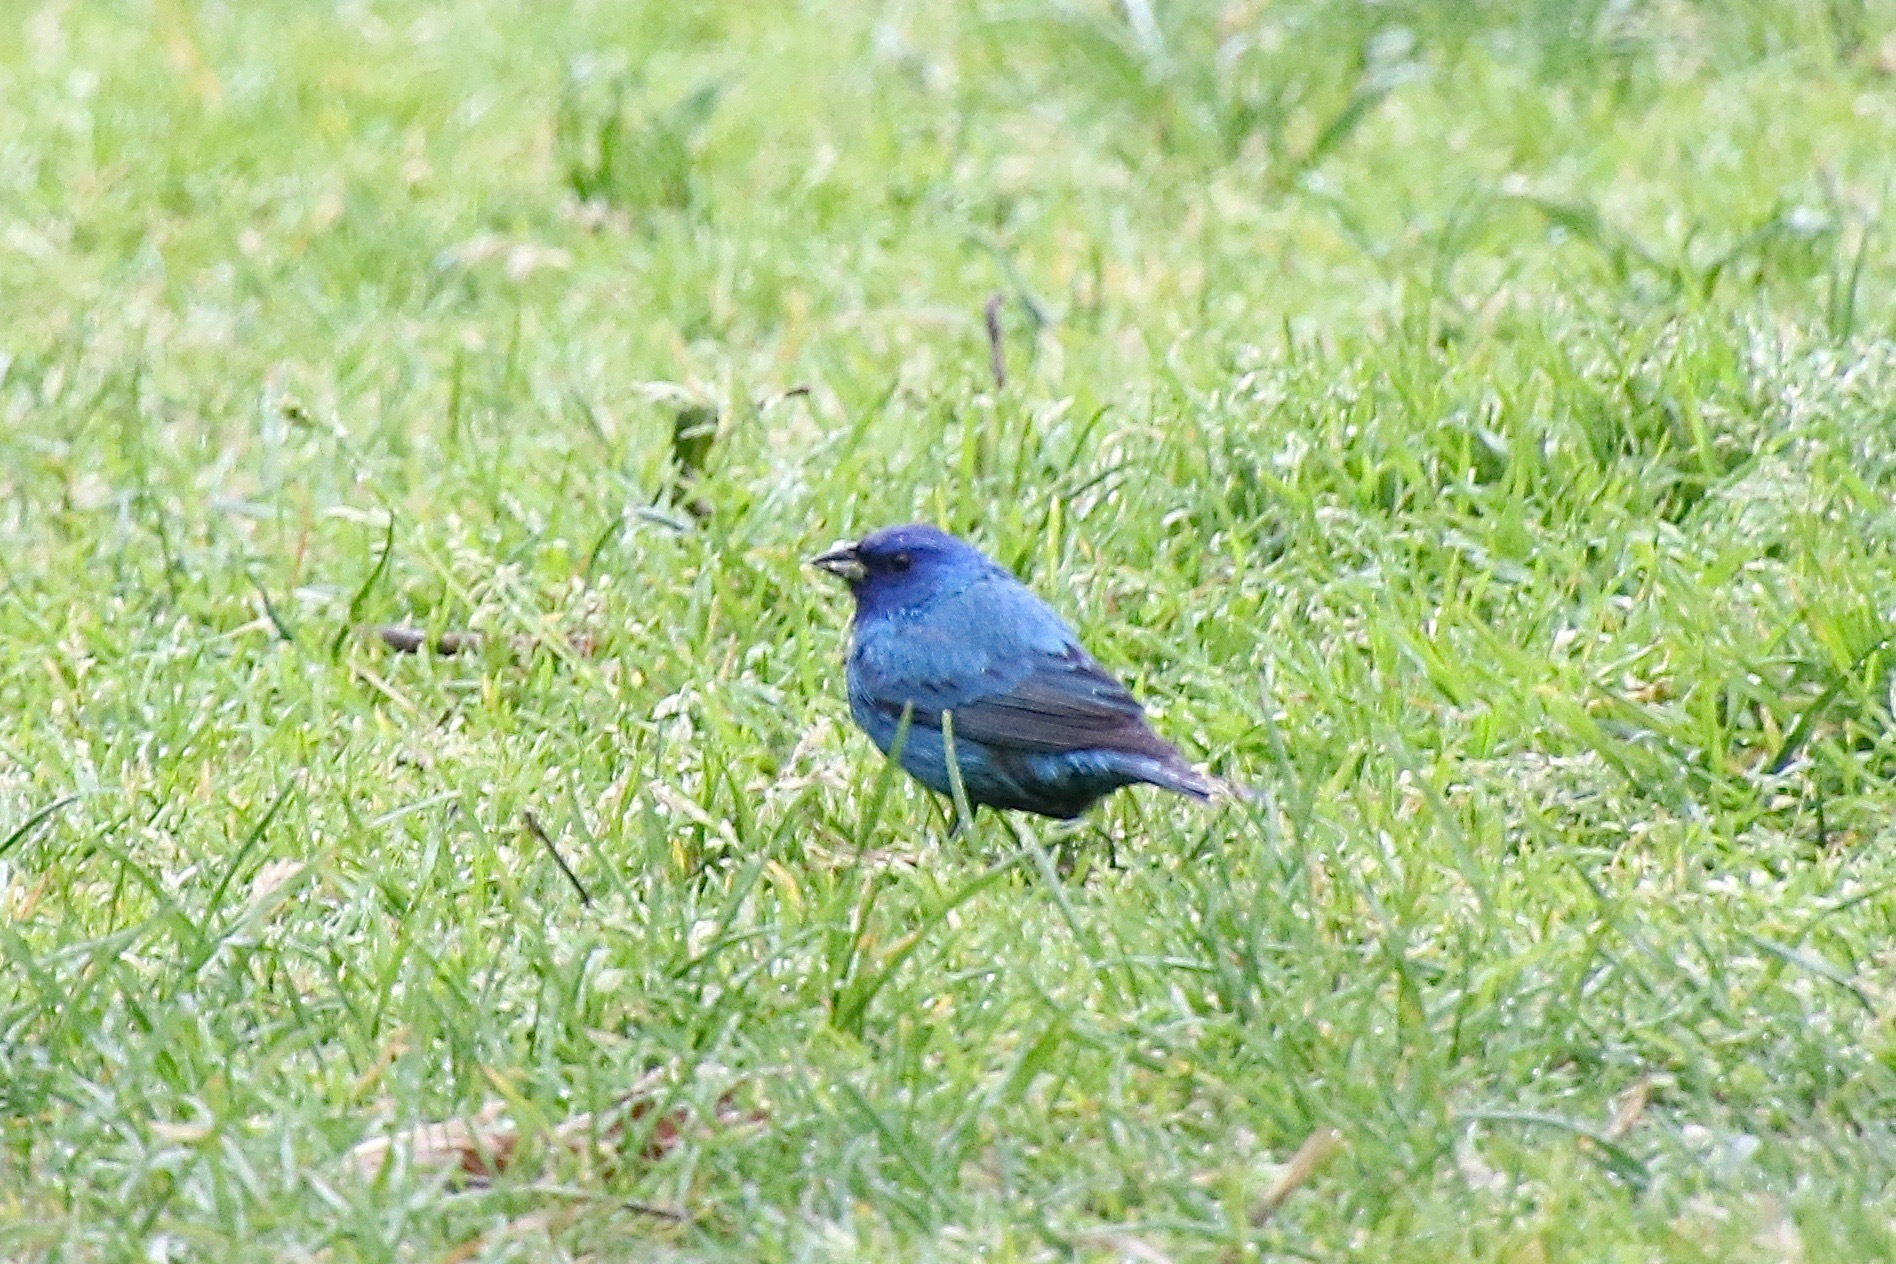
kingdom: Animalia
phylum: Chordata
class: Aves
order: Passeriformes
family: Cardinalidae
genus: Passerina
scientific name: Passerina cyanea
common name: Indigo bunting
